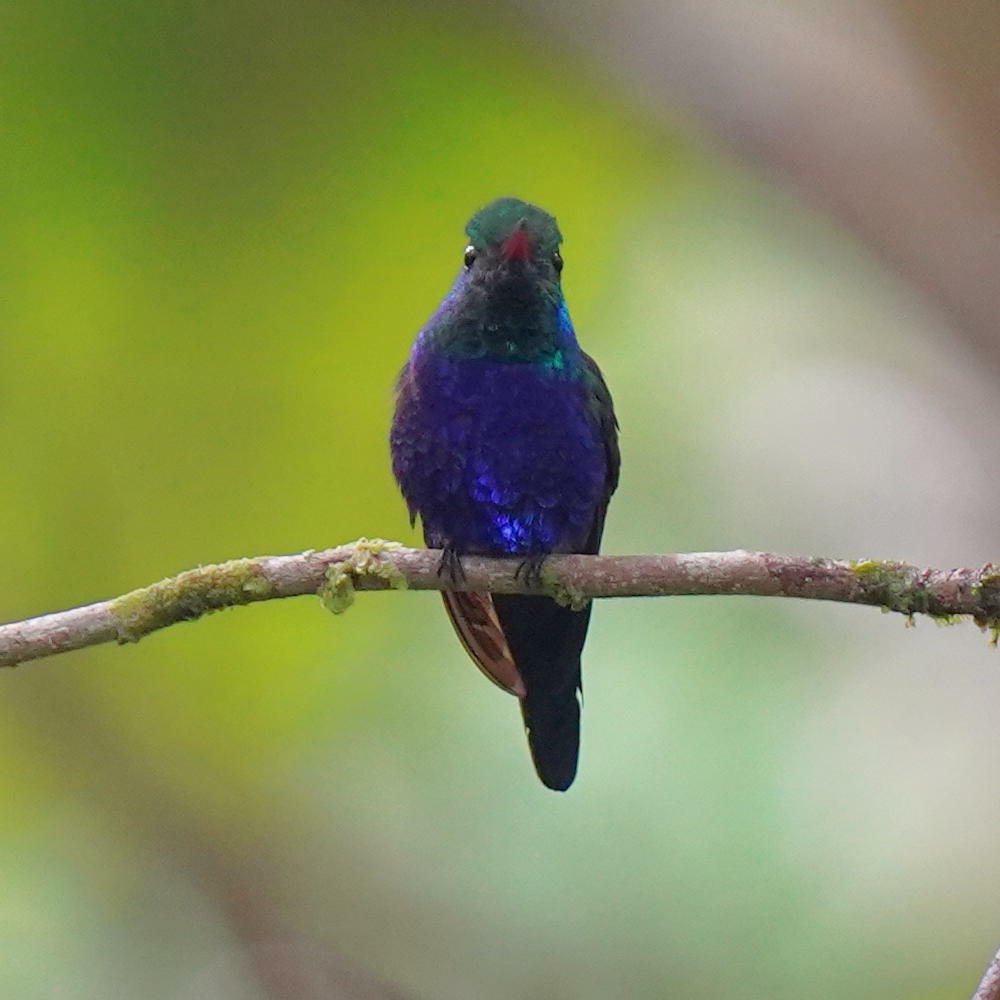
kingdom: Animalia
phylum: Chordata
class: Aves
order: Apodiformes
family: Trochilidae
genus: Chlorestes
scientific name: Chlorestes julie
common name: Violet-bellied hummingbird
